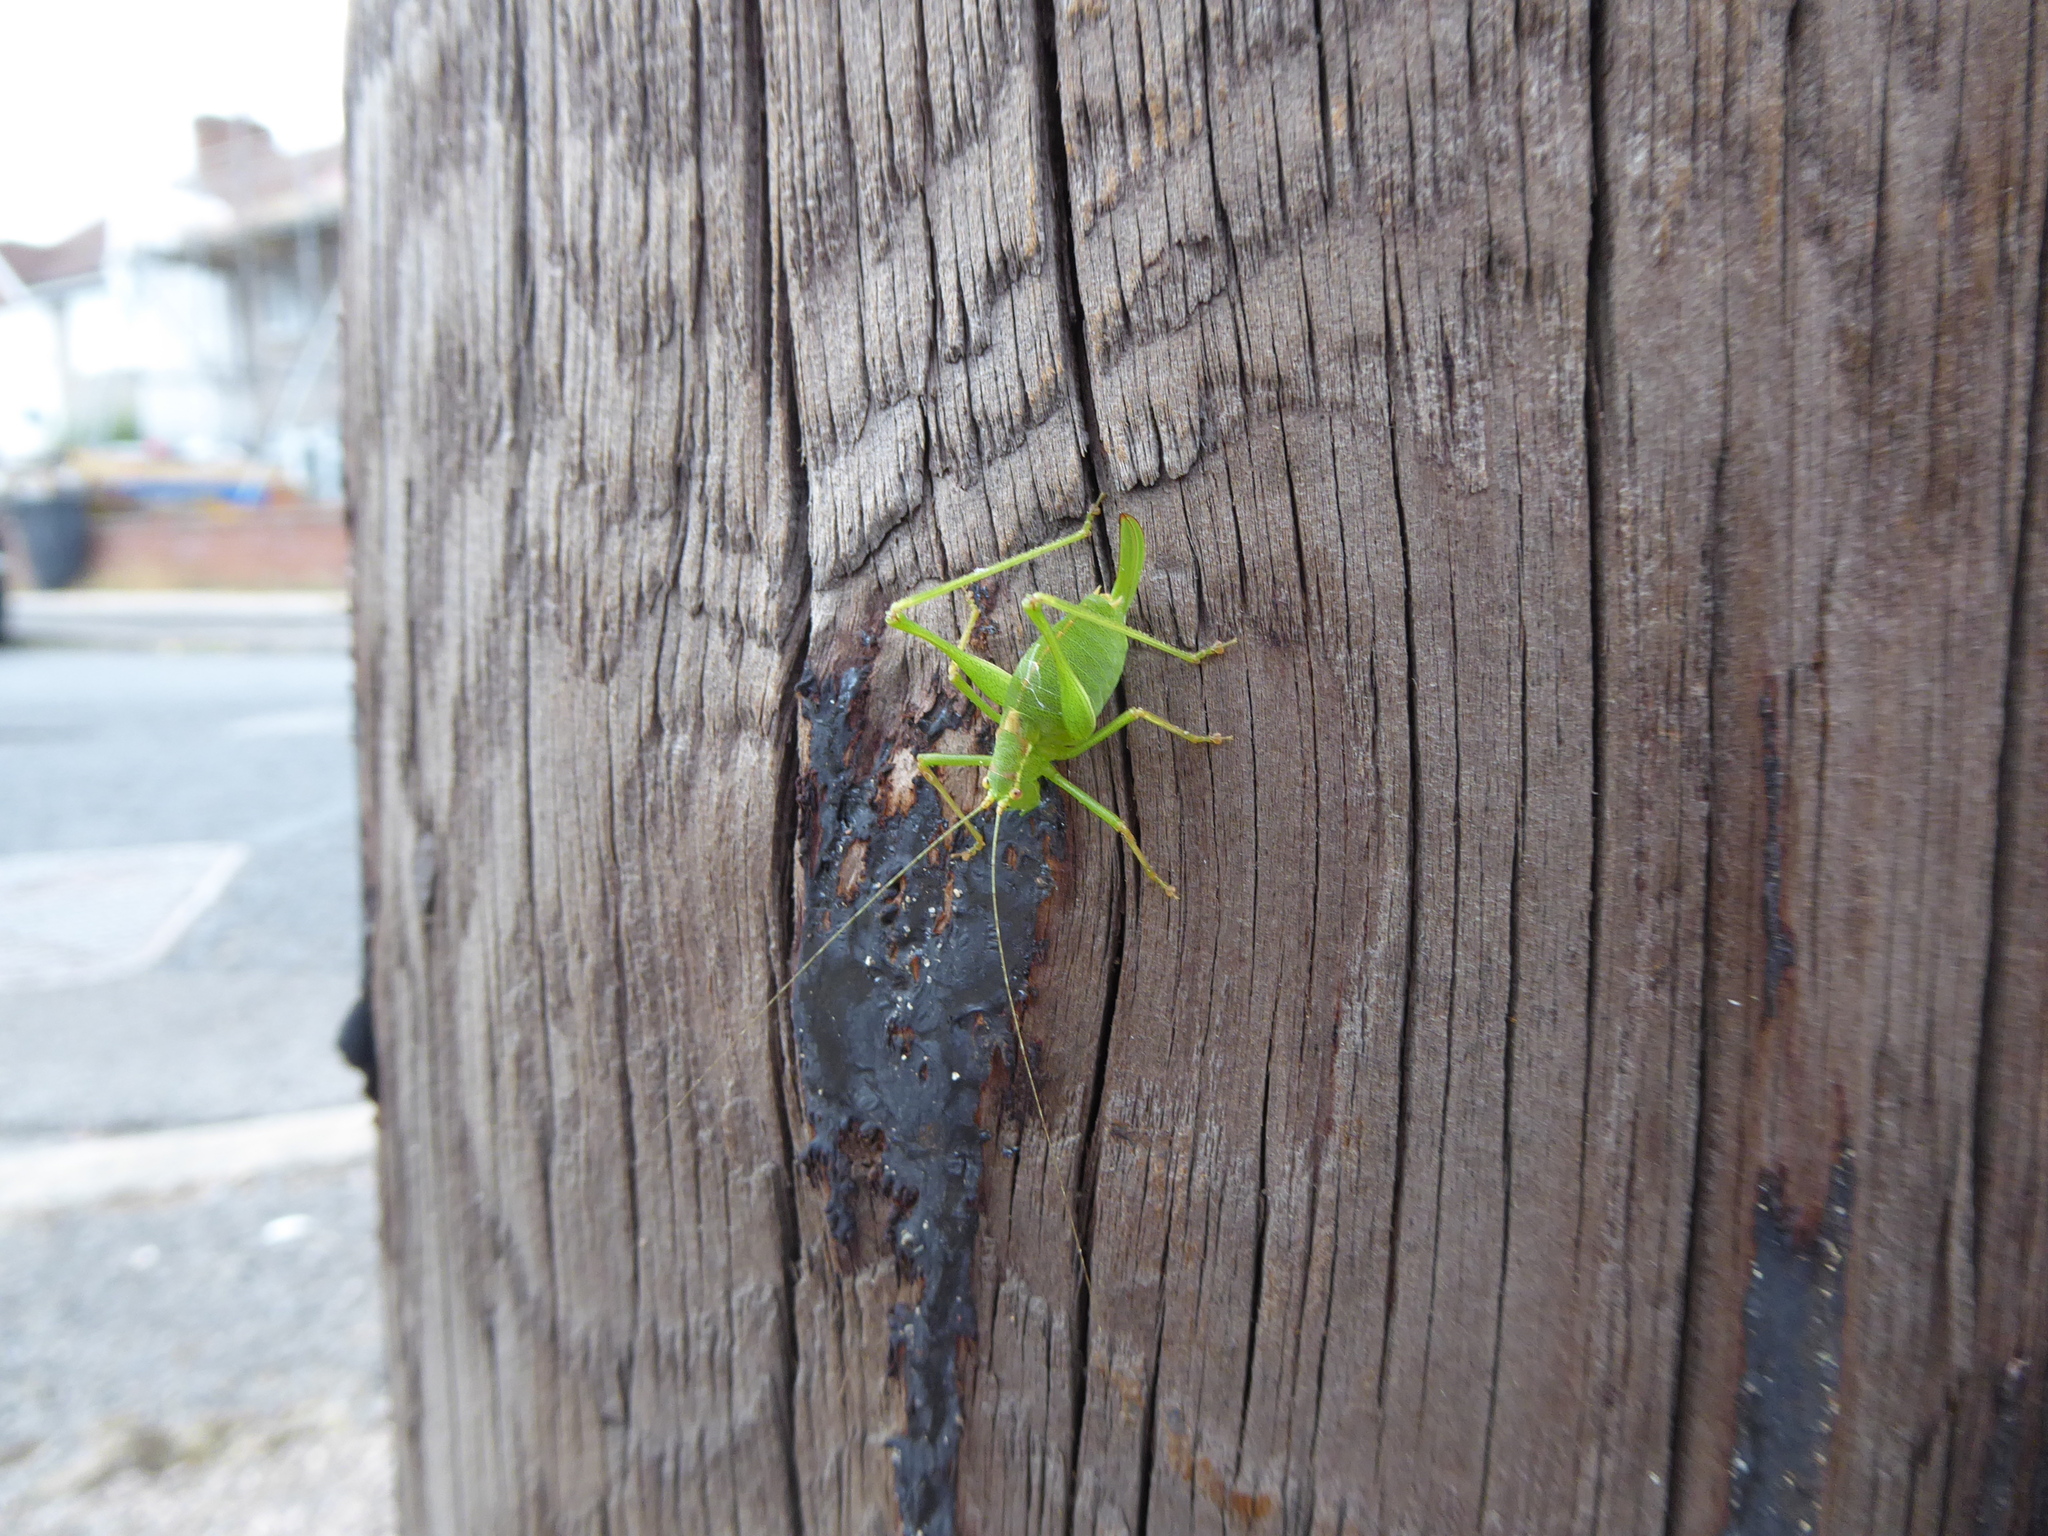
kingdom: Animalia
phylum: Arthropoda
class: Insecta
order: Orthoptera
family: Tettigoniidae
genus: Leptophyes
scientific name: Leptophyes punctatissima
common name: Speckled bush-cricket
